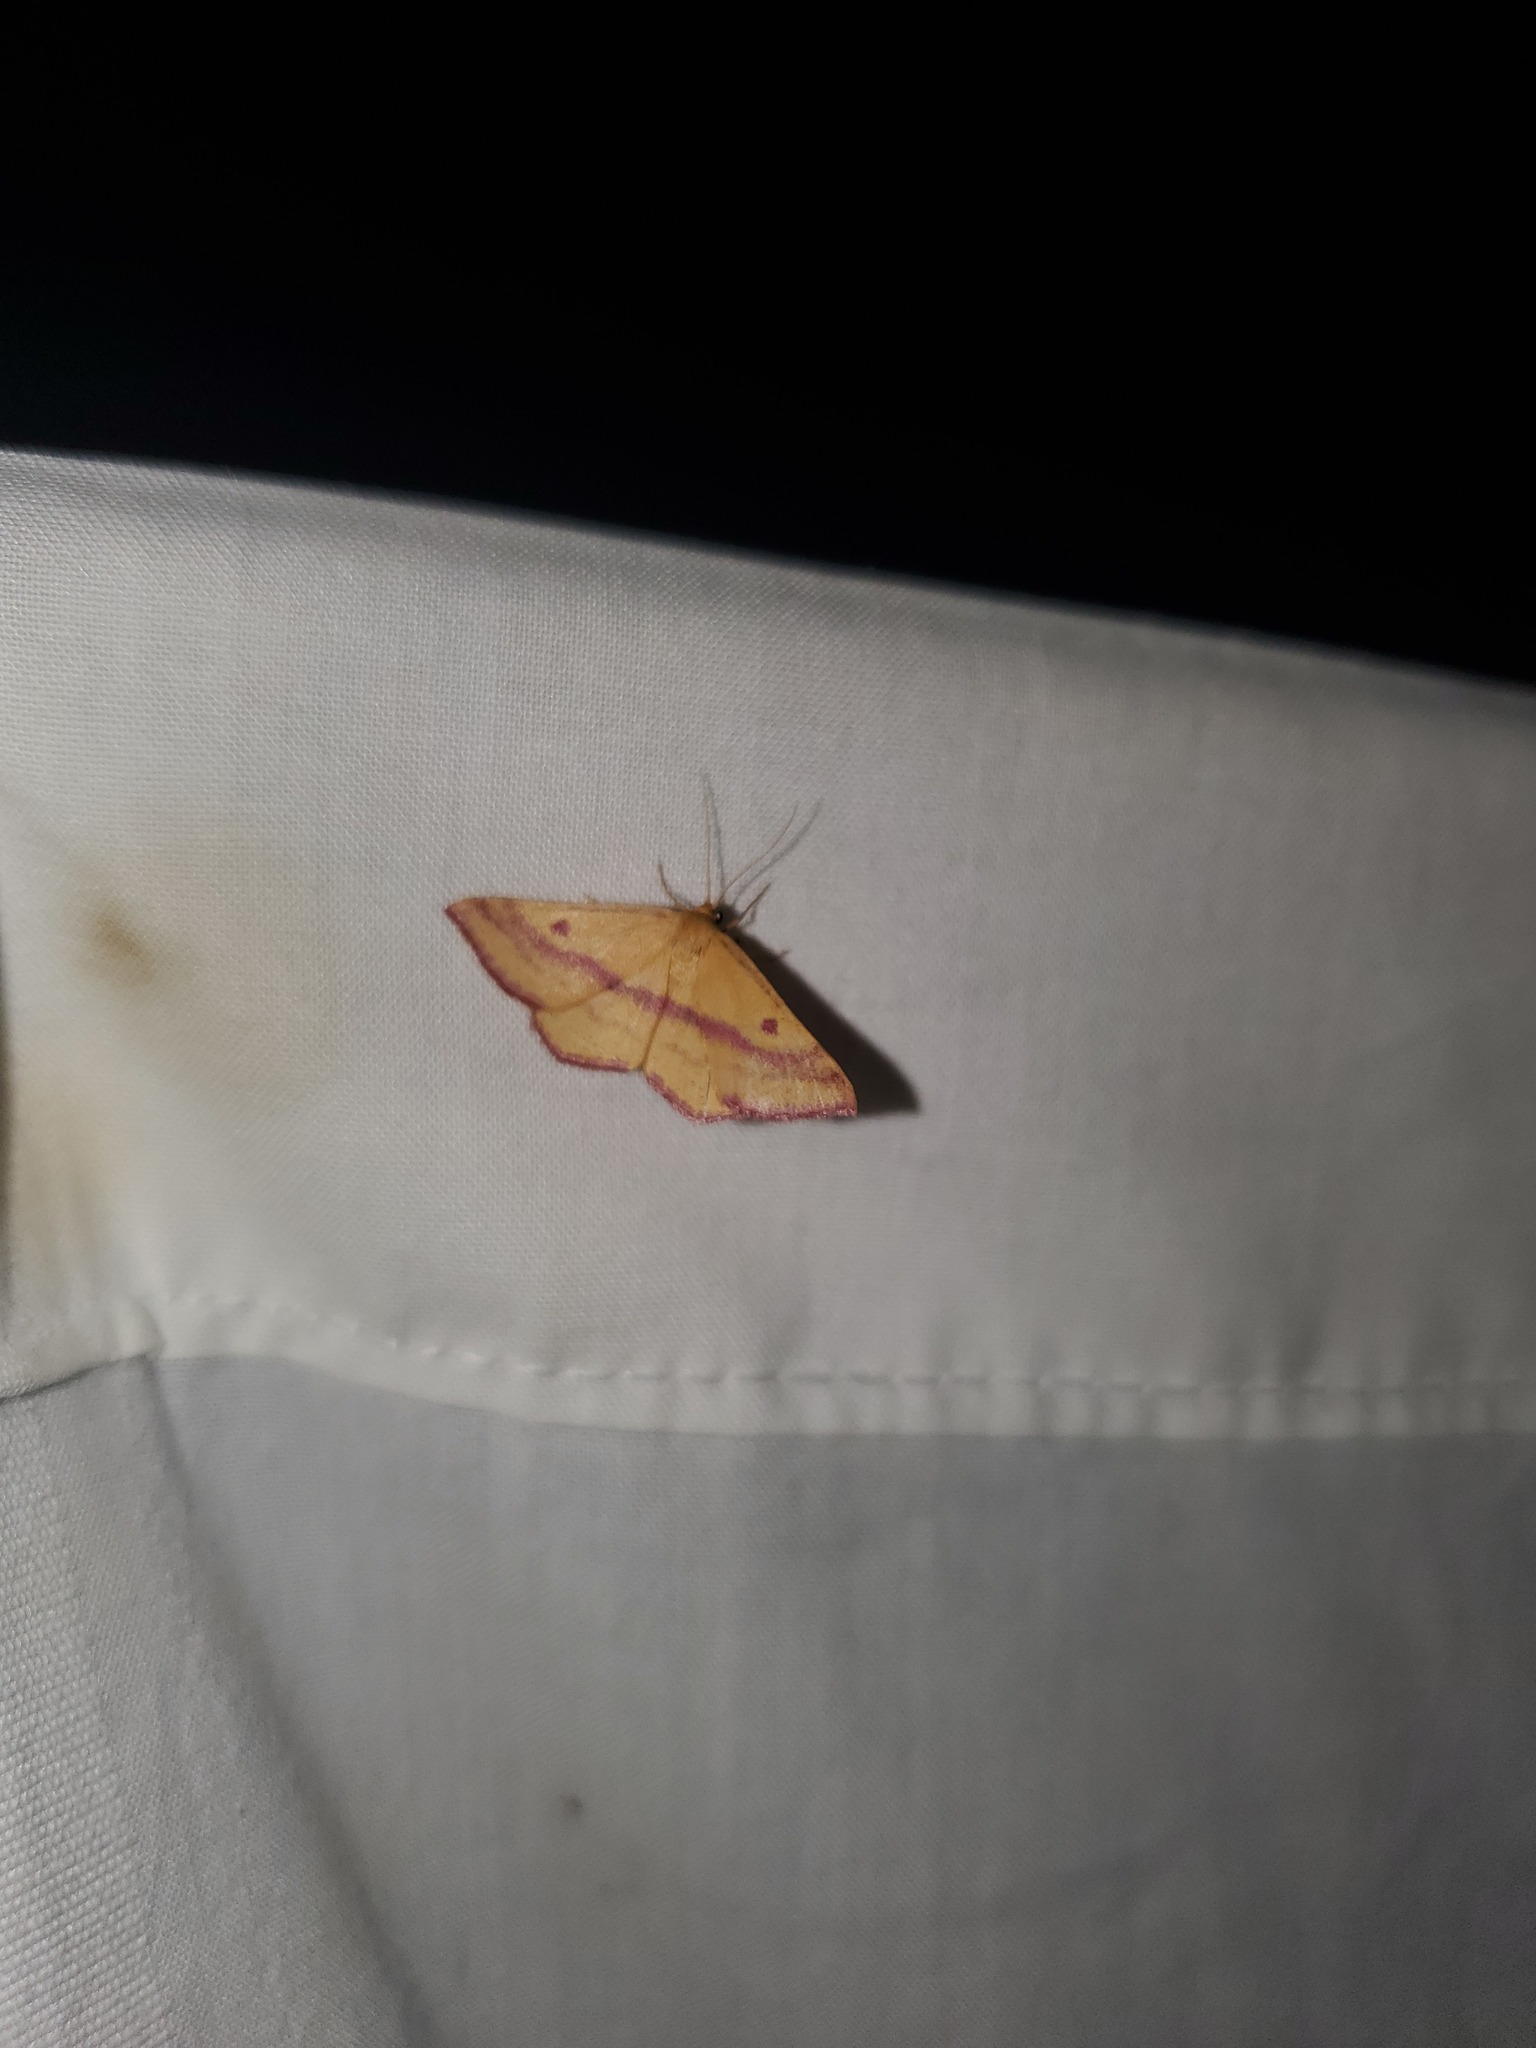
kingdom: Animalia
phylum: Arthropoda
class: Insecta
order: Lepidoptera
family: Geometridae
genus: Haematopis
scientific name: Haematopis grataria
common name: Chickweed geometer
